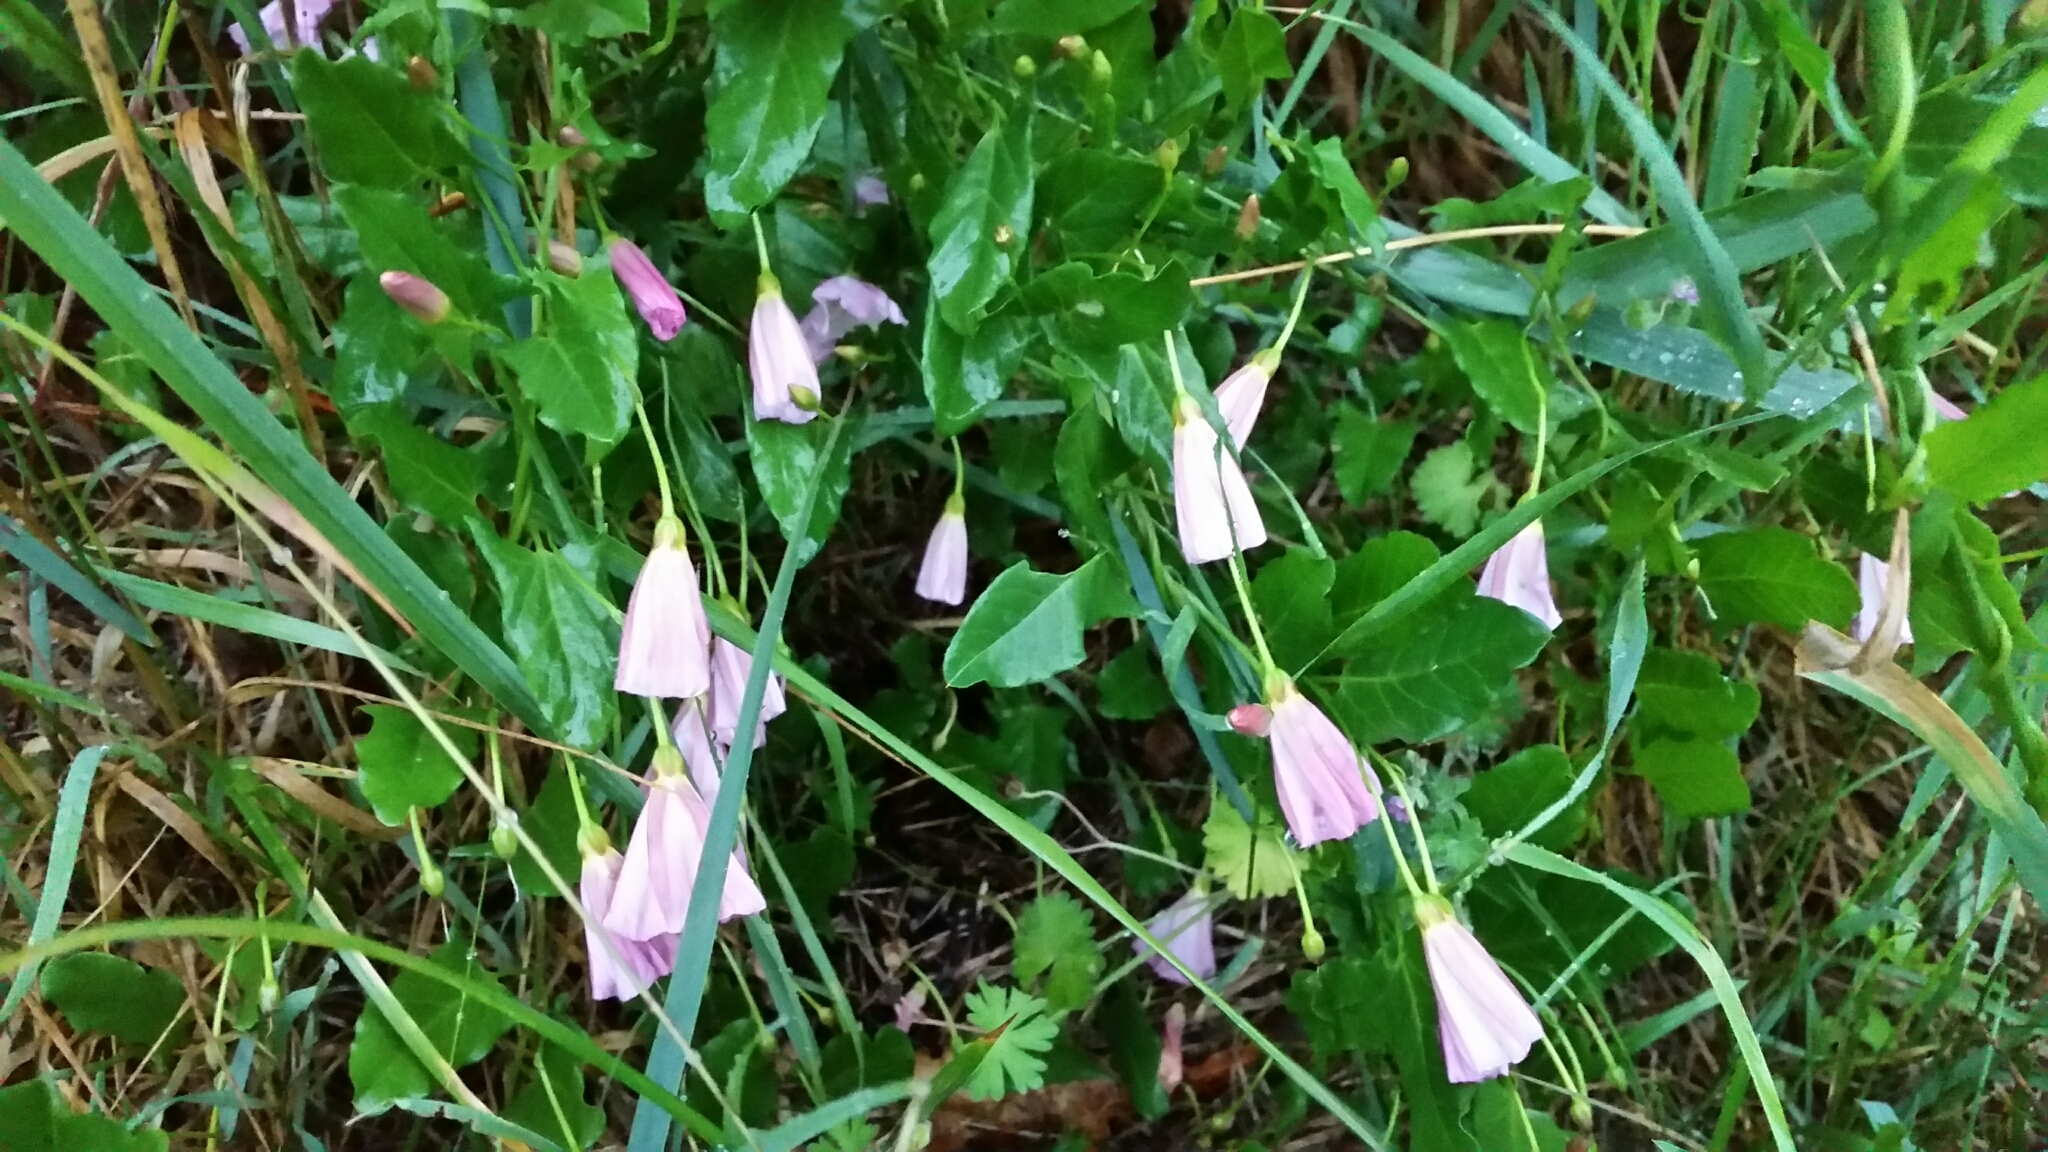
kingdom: Plantae
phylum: Tracheophyta
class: Magnoliopsida
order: Solanales
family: Convolvulaceae
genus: Convolvulus
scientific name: Convolvulus arvensis
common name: Field bindweed
